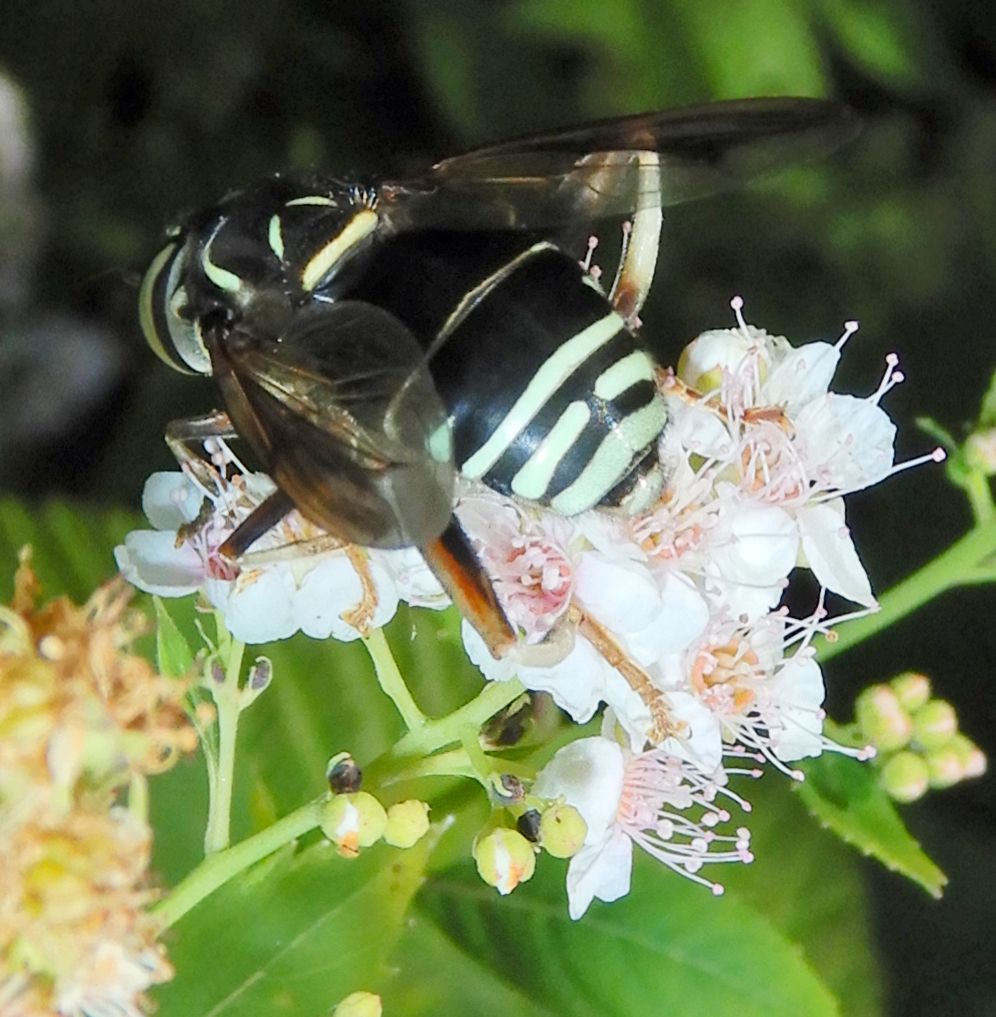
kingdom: Animalia
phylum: Arthropoda
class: Insecta
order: Diptera
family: Syrphidae
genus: Spilomyia
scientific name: Spilomyia fusca
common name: Bald-faced hornet fly
